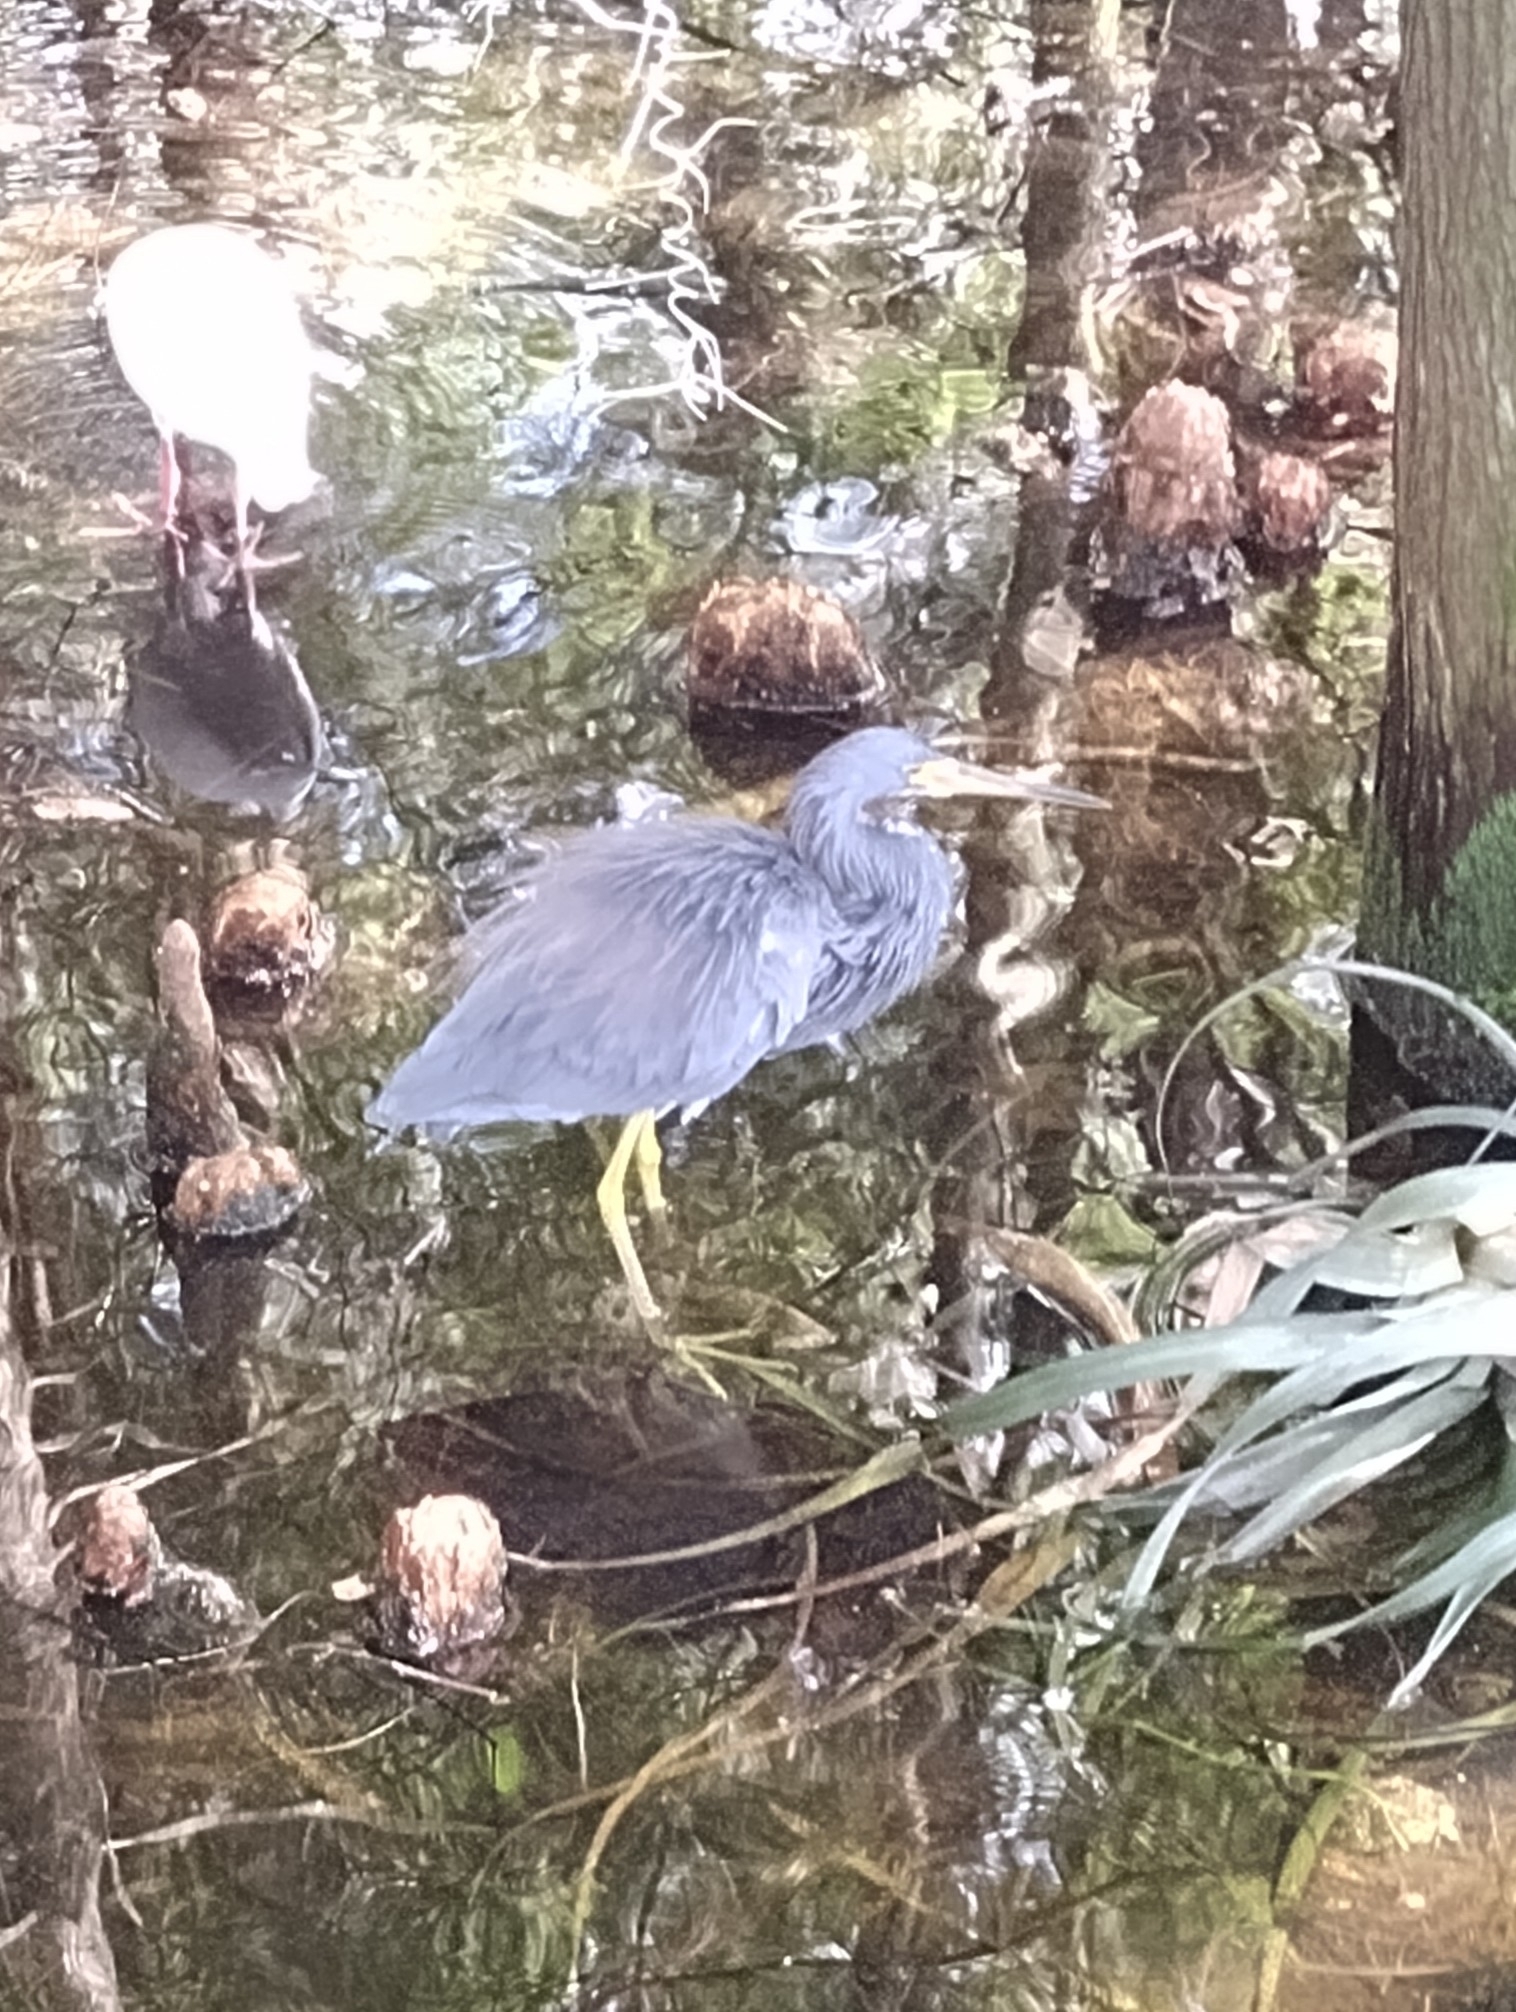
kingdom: Animalia
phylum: Chordata
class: Aves
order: Pelecaniformes
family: Ardeidae
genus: Egretta
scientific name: Egretta tricolor
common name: Tricolored heron
